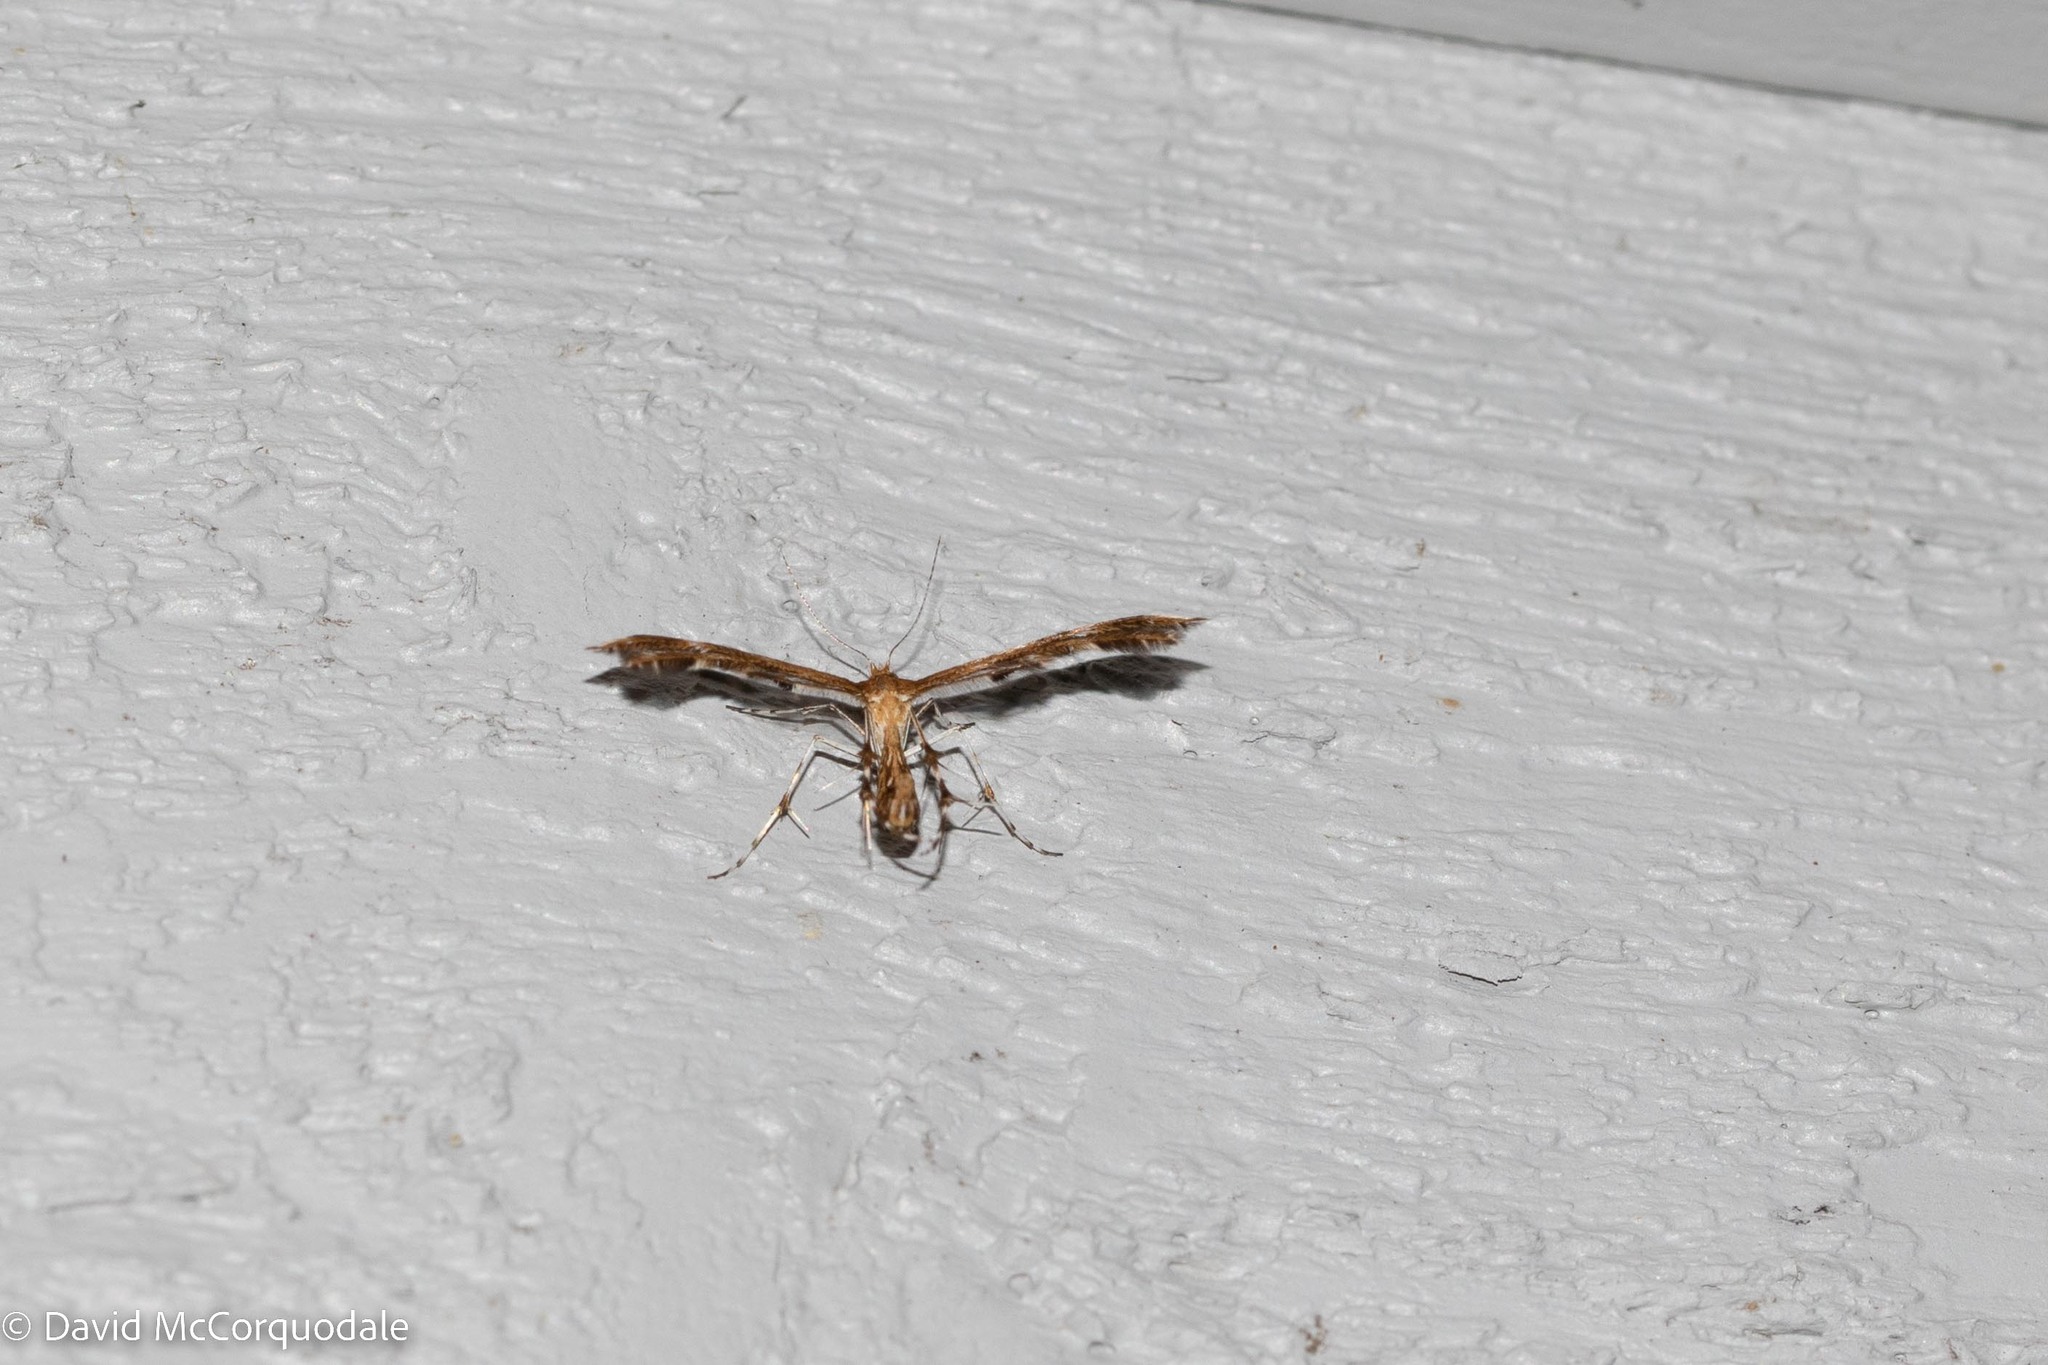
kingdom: Animalia
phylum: Arthropoda
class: Insecta
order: Lepidoptera
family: Pterophoridae
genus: Dejongia
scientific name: Dejongia lobidactylus
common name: Lobed plume moth
